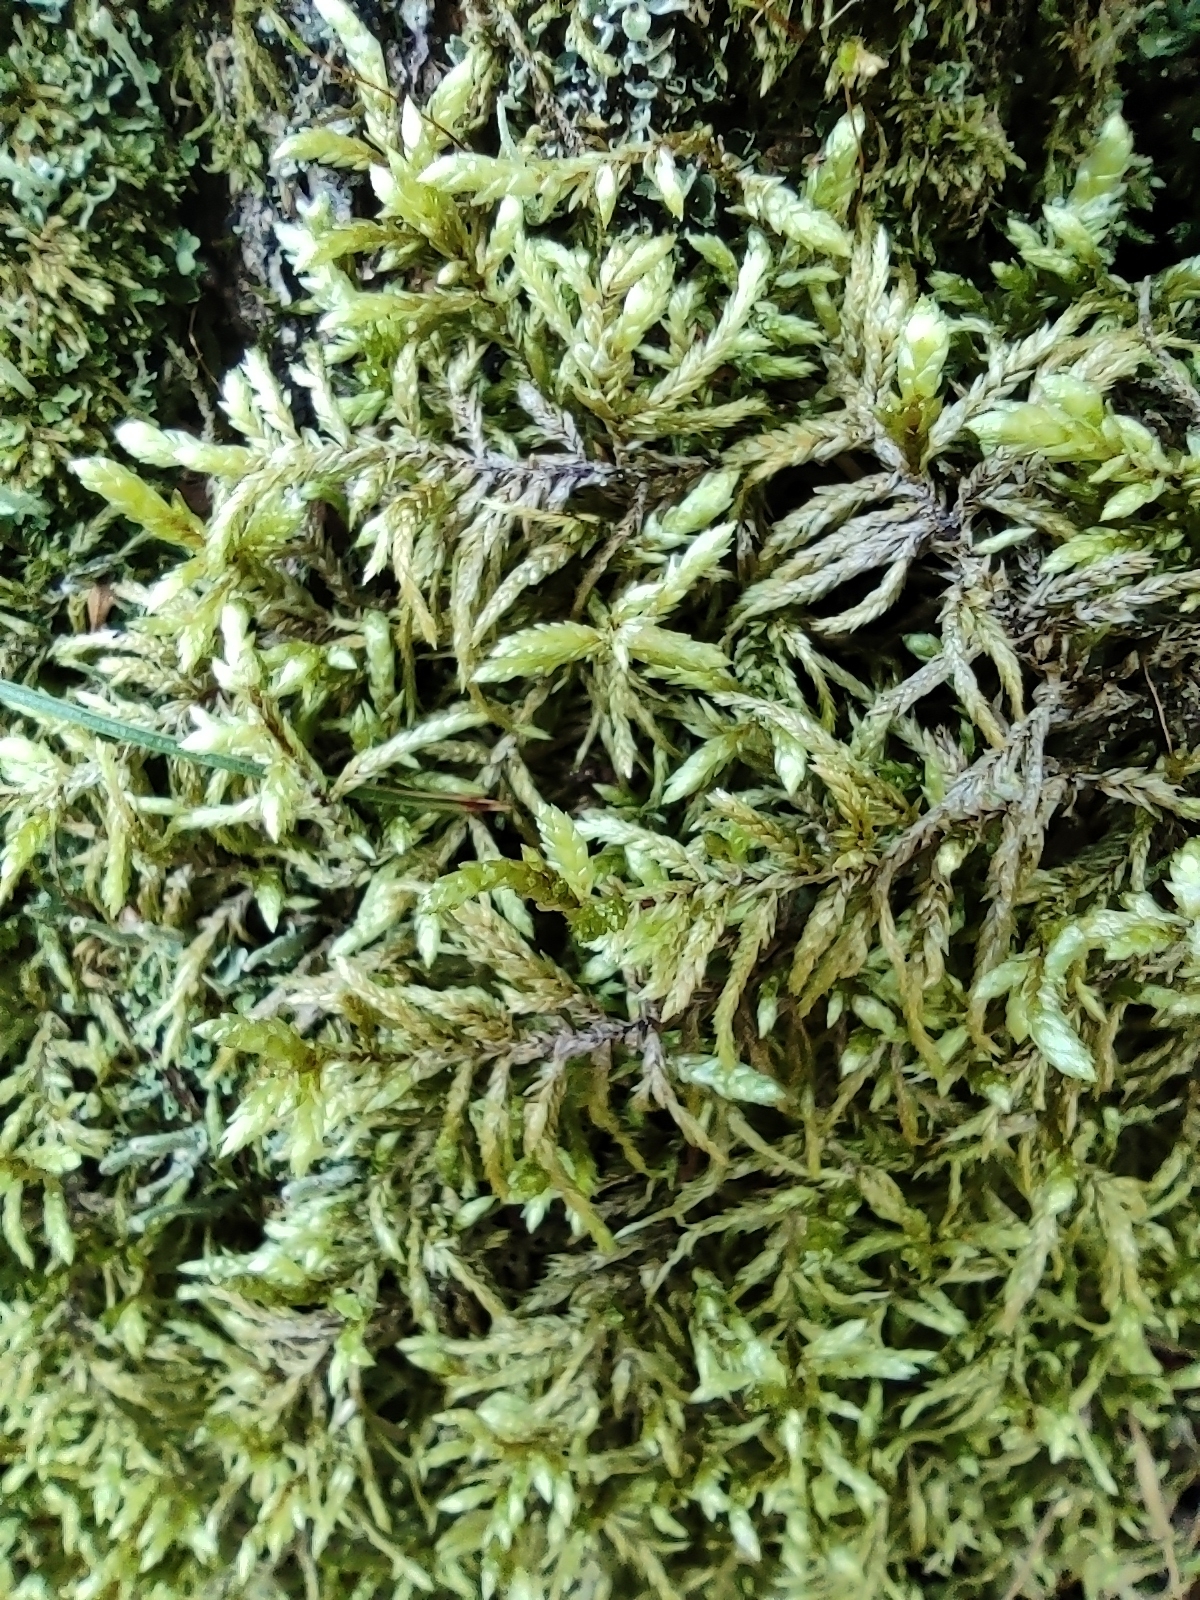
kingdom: Plantae
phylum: Bryophyta
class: Bryopsida
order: Hypnales
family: Hylocomiaceae
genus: Pleurozium
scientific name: Pleurozium schreberi
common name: Red-stemmed feather moss
